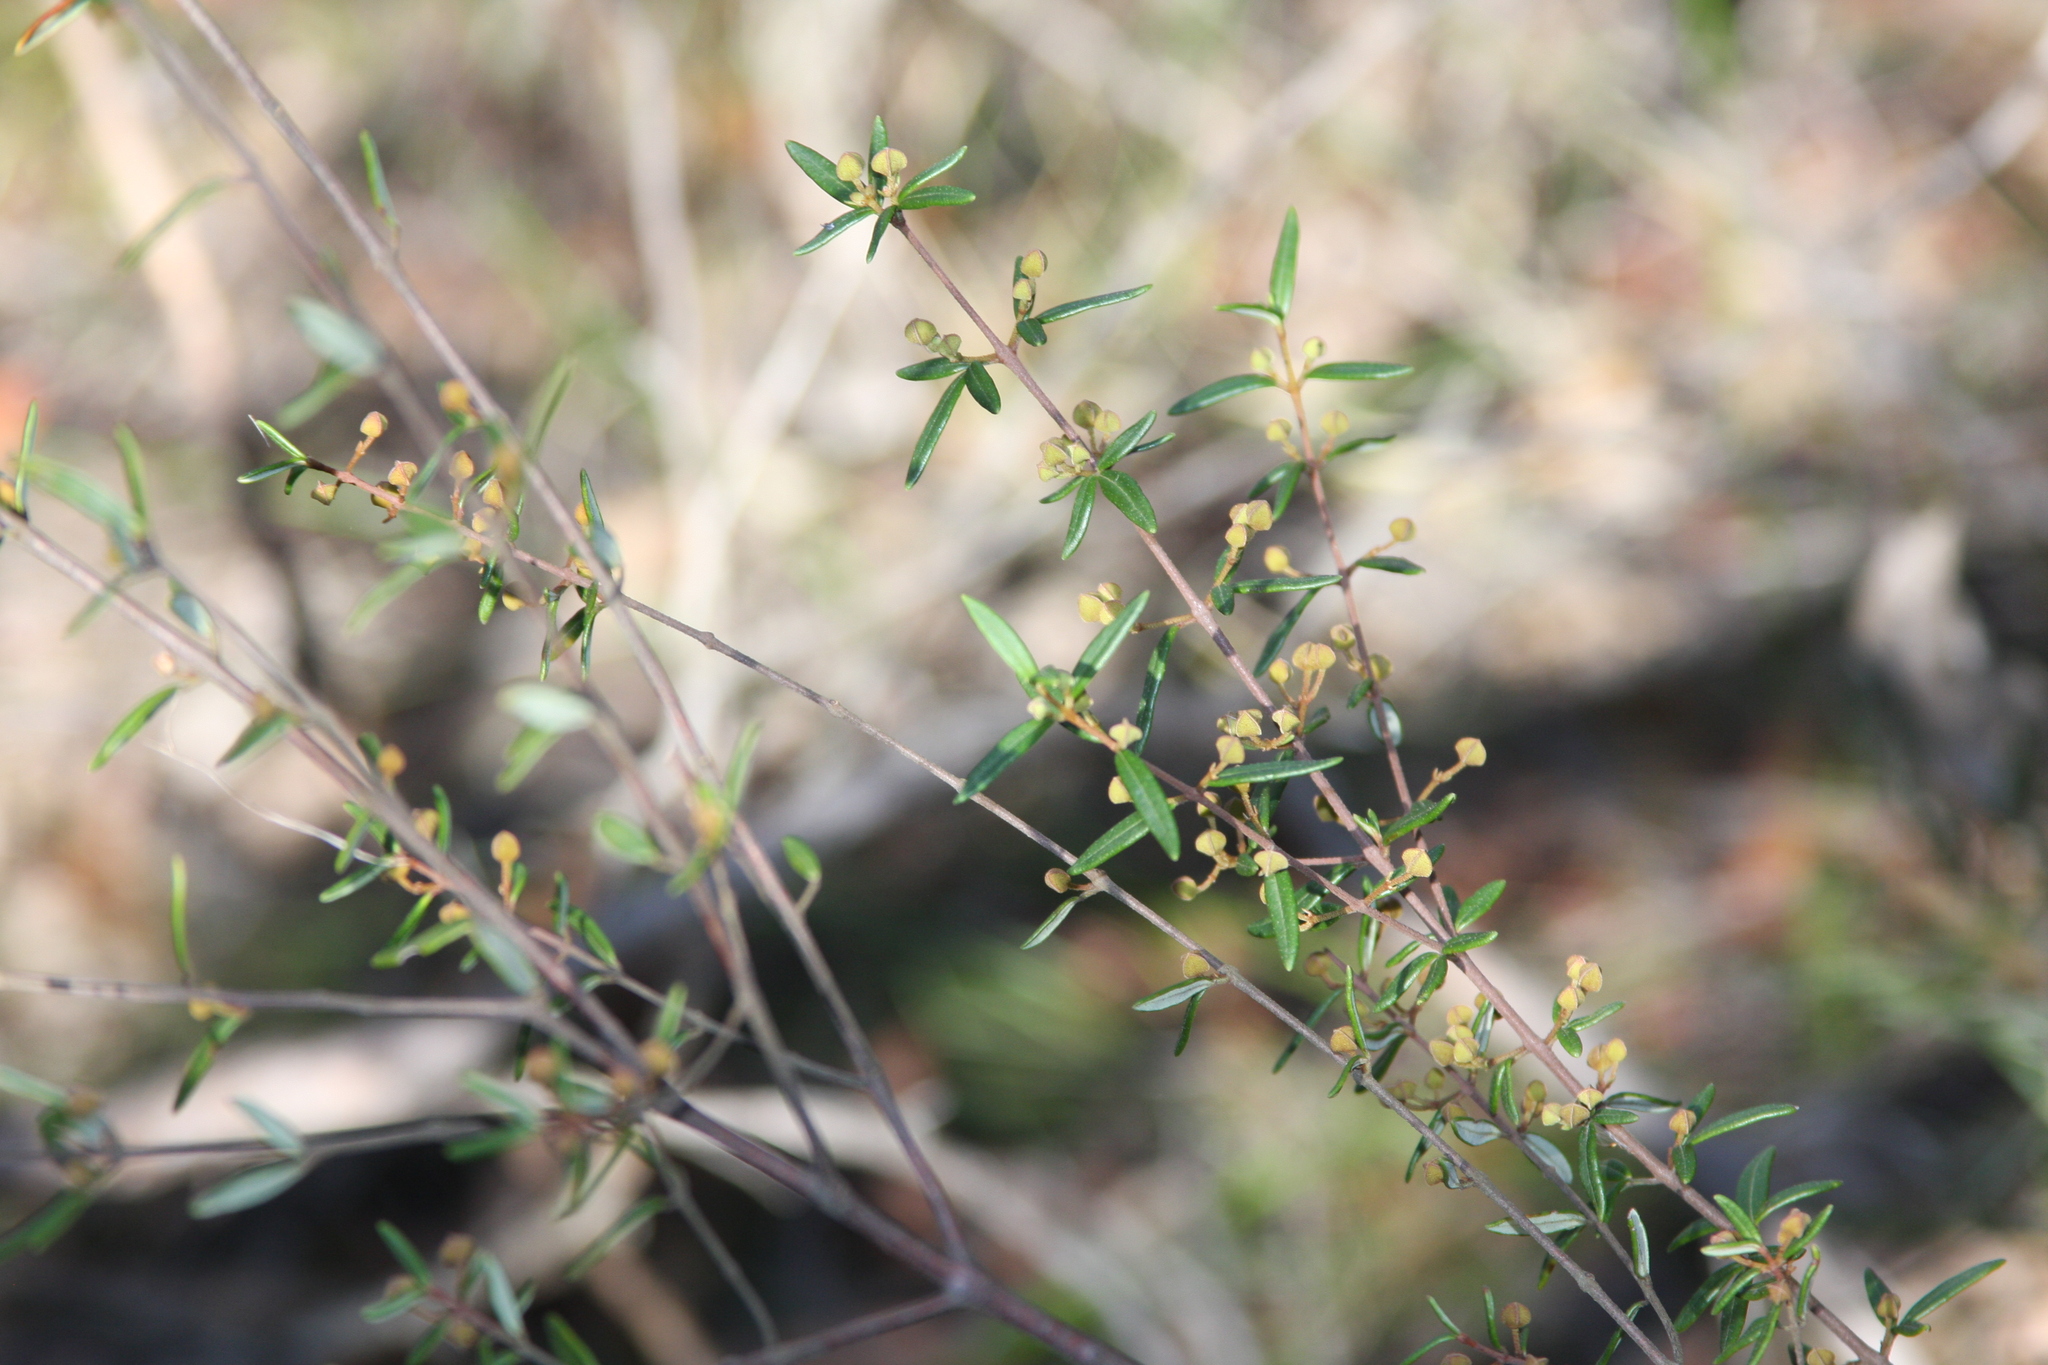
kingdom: Plantae
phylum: Tracheophyta
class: Magnoliopsida
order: Sapindales
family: Rutaceae
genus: Boronia
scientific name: Boronia ledifolia
